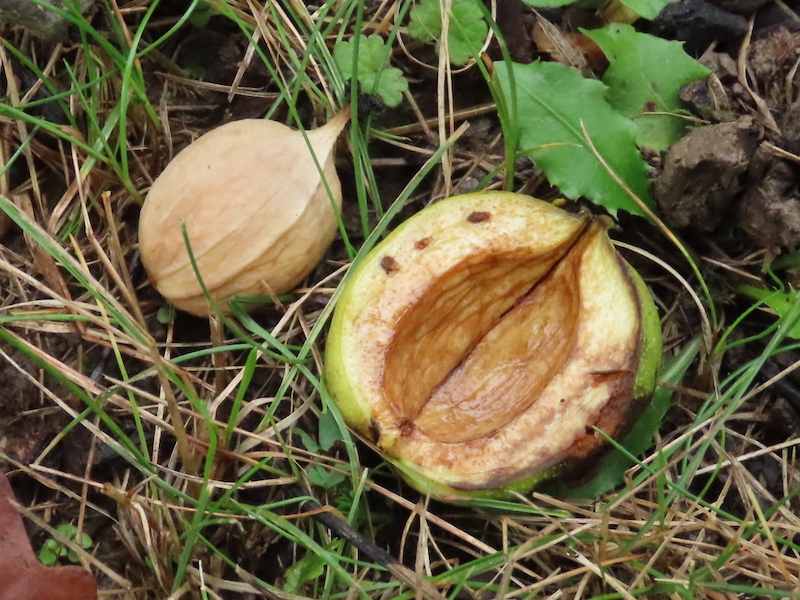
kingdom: Plantae
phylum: Tracheophyta
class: Magnoliopsida
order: Fagales
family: Juglandaceae
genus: Carya
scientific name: Carya laciniosa
